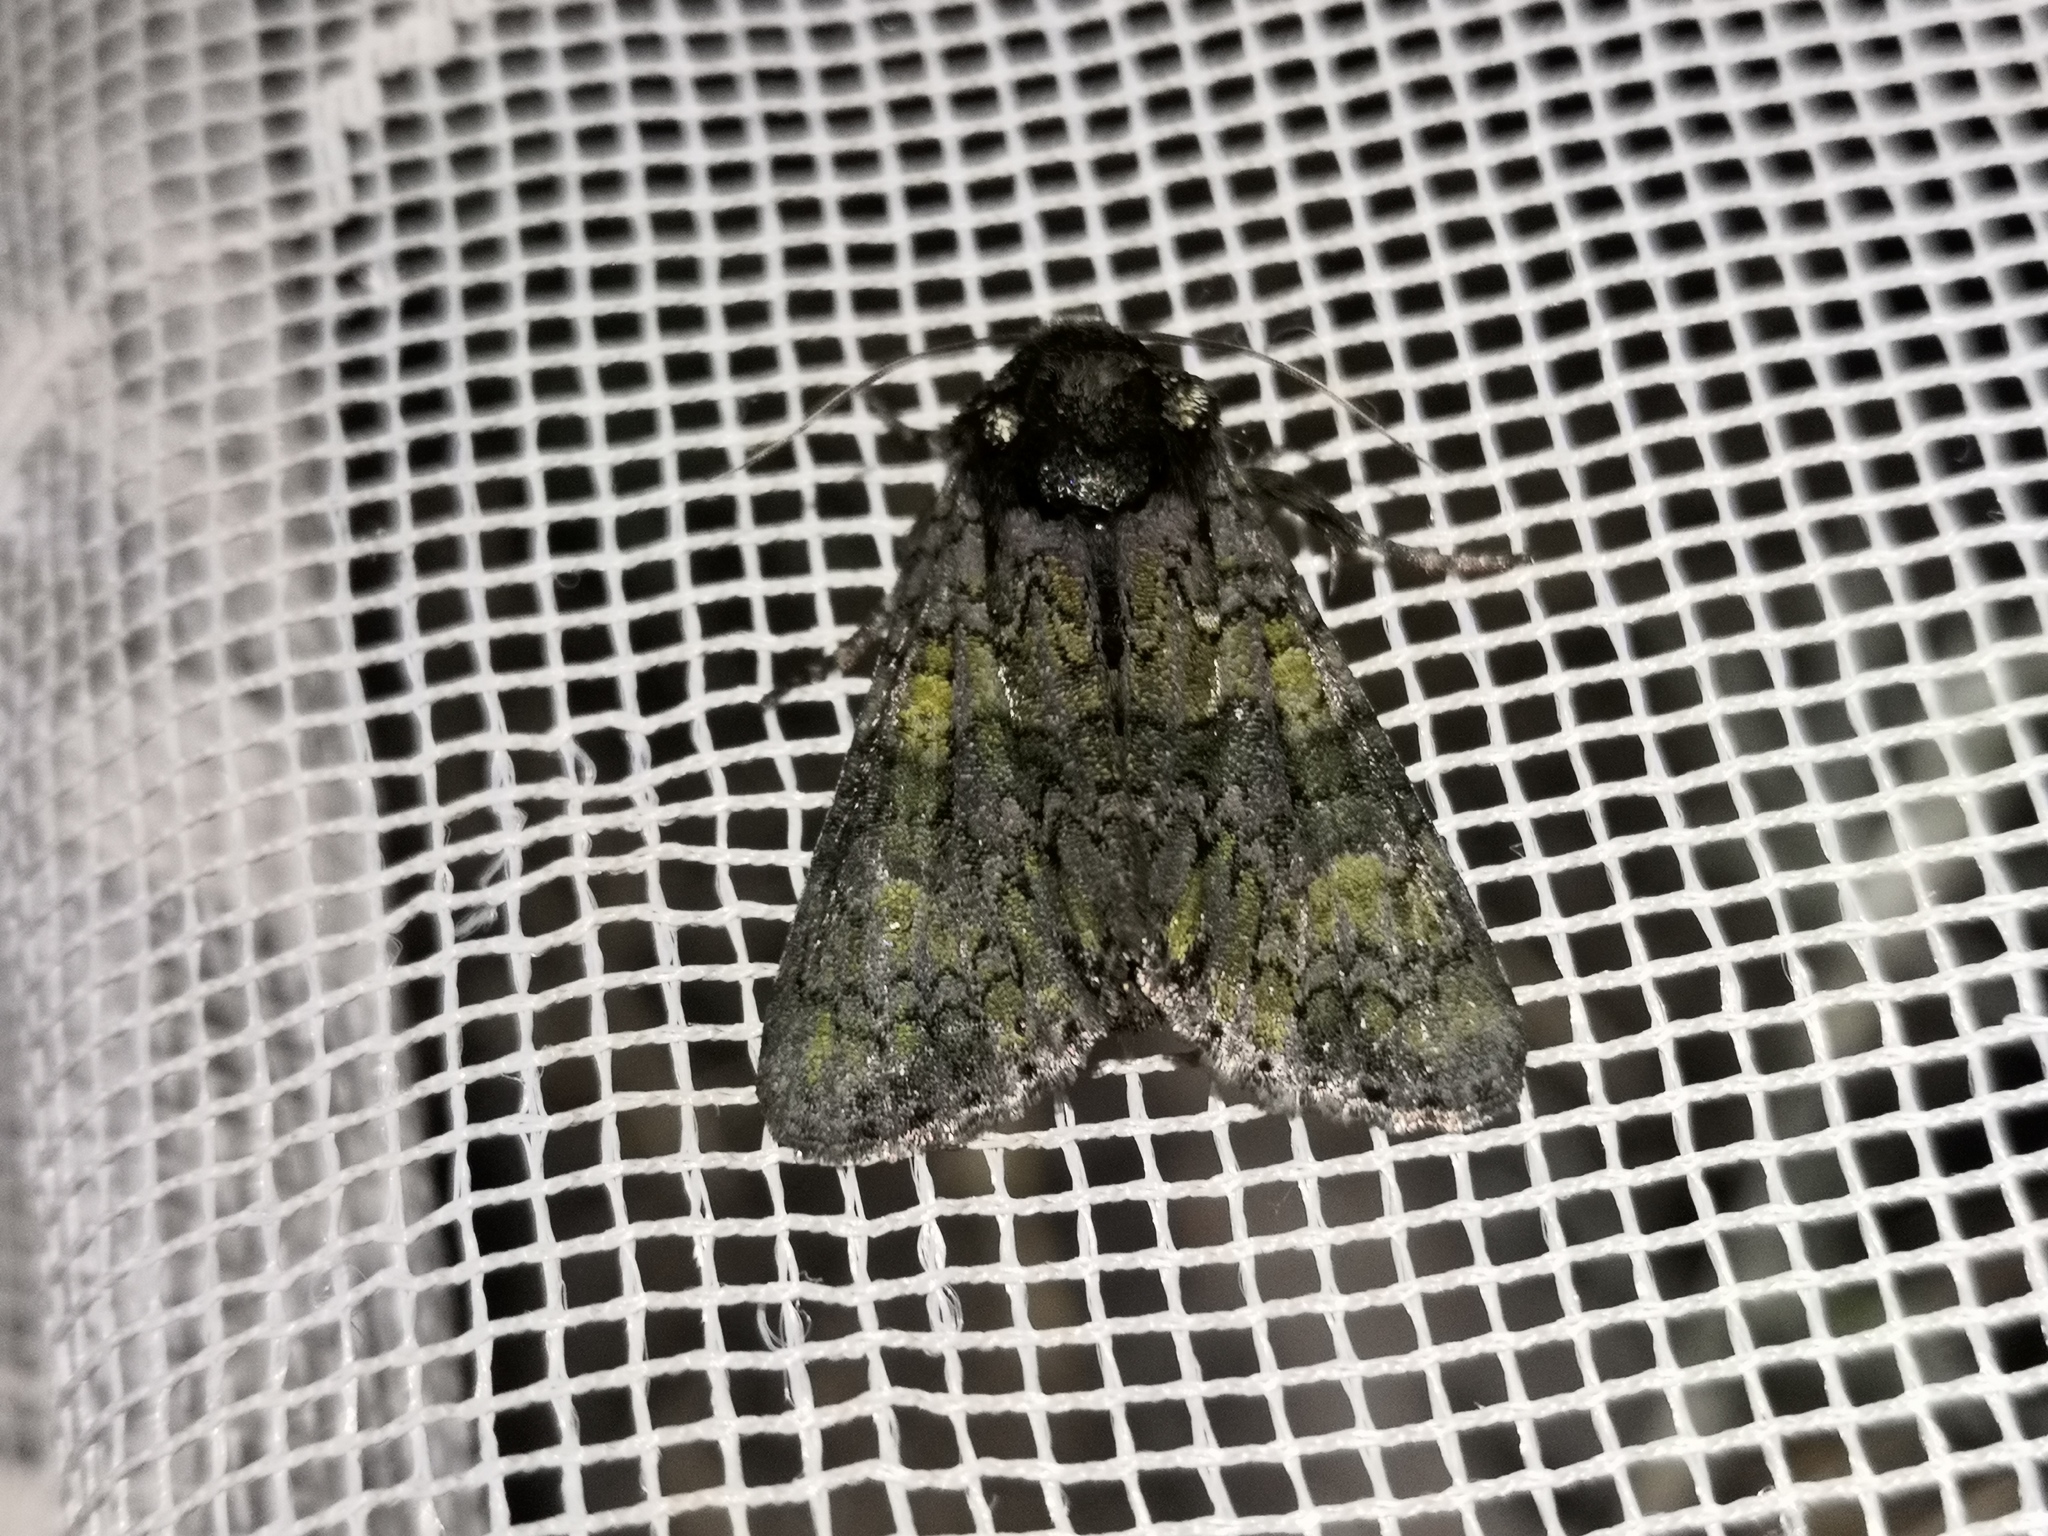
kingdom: Animalia
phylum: Arthropoda
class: Insecta
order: Lepidoptera
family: Noctuidae
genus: Craniophora
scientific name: Craniophora ligustri
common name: Coronet
